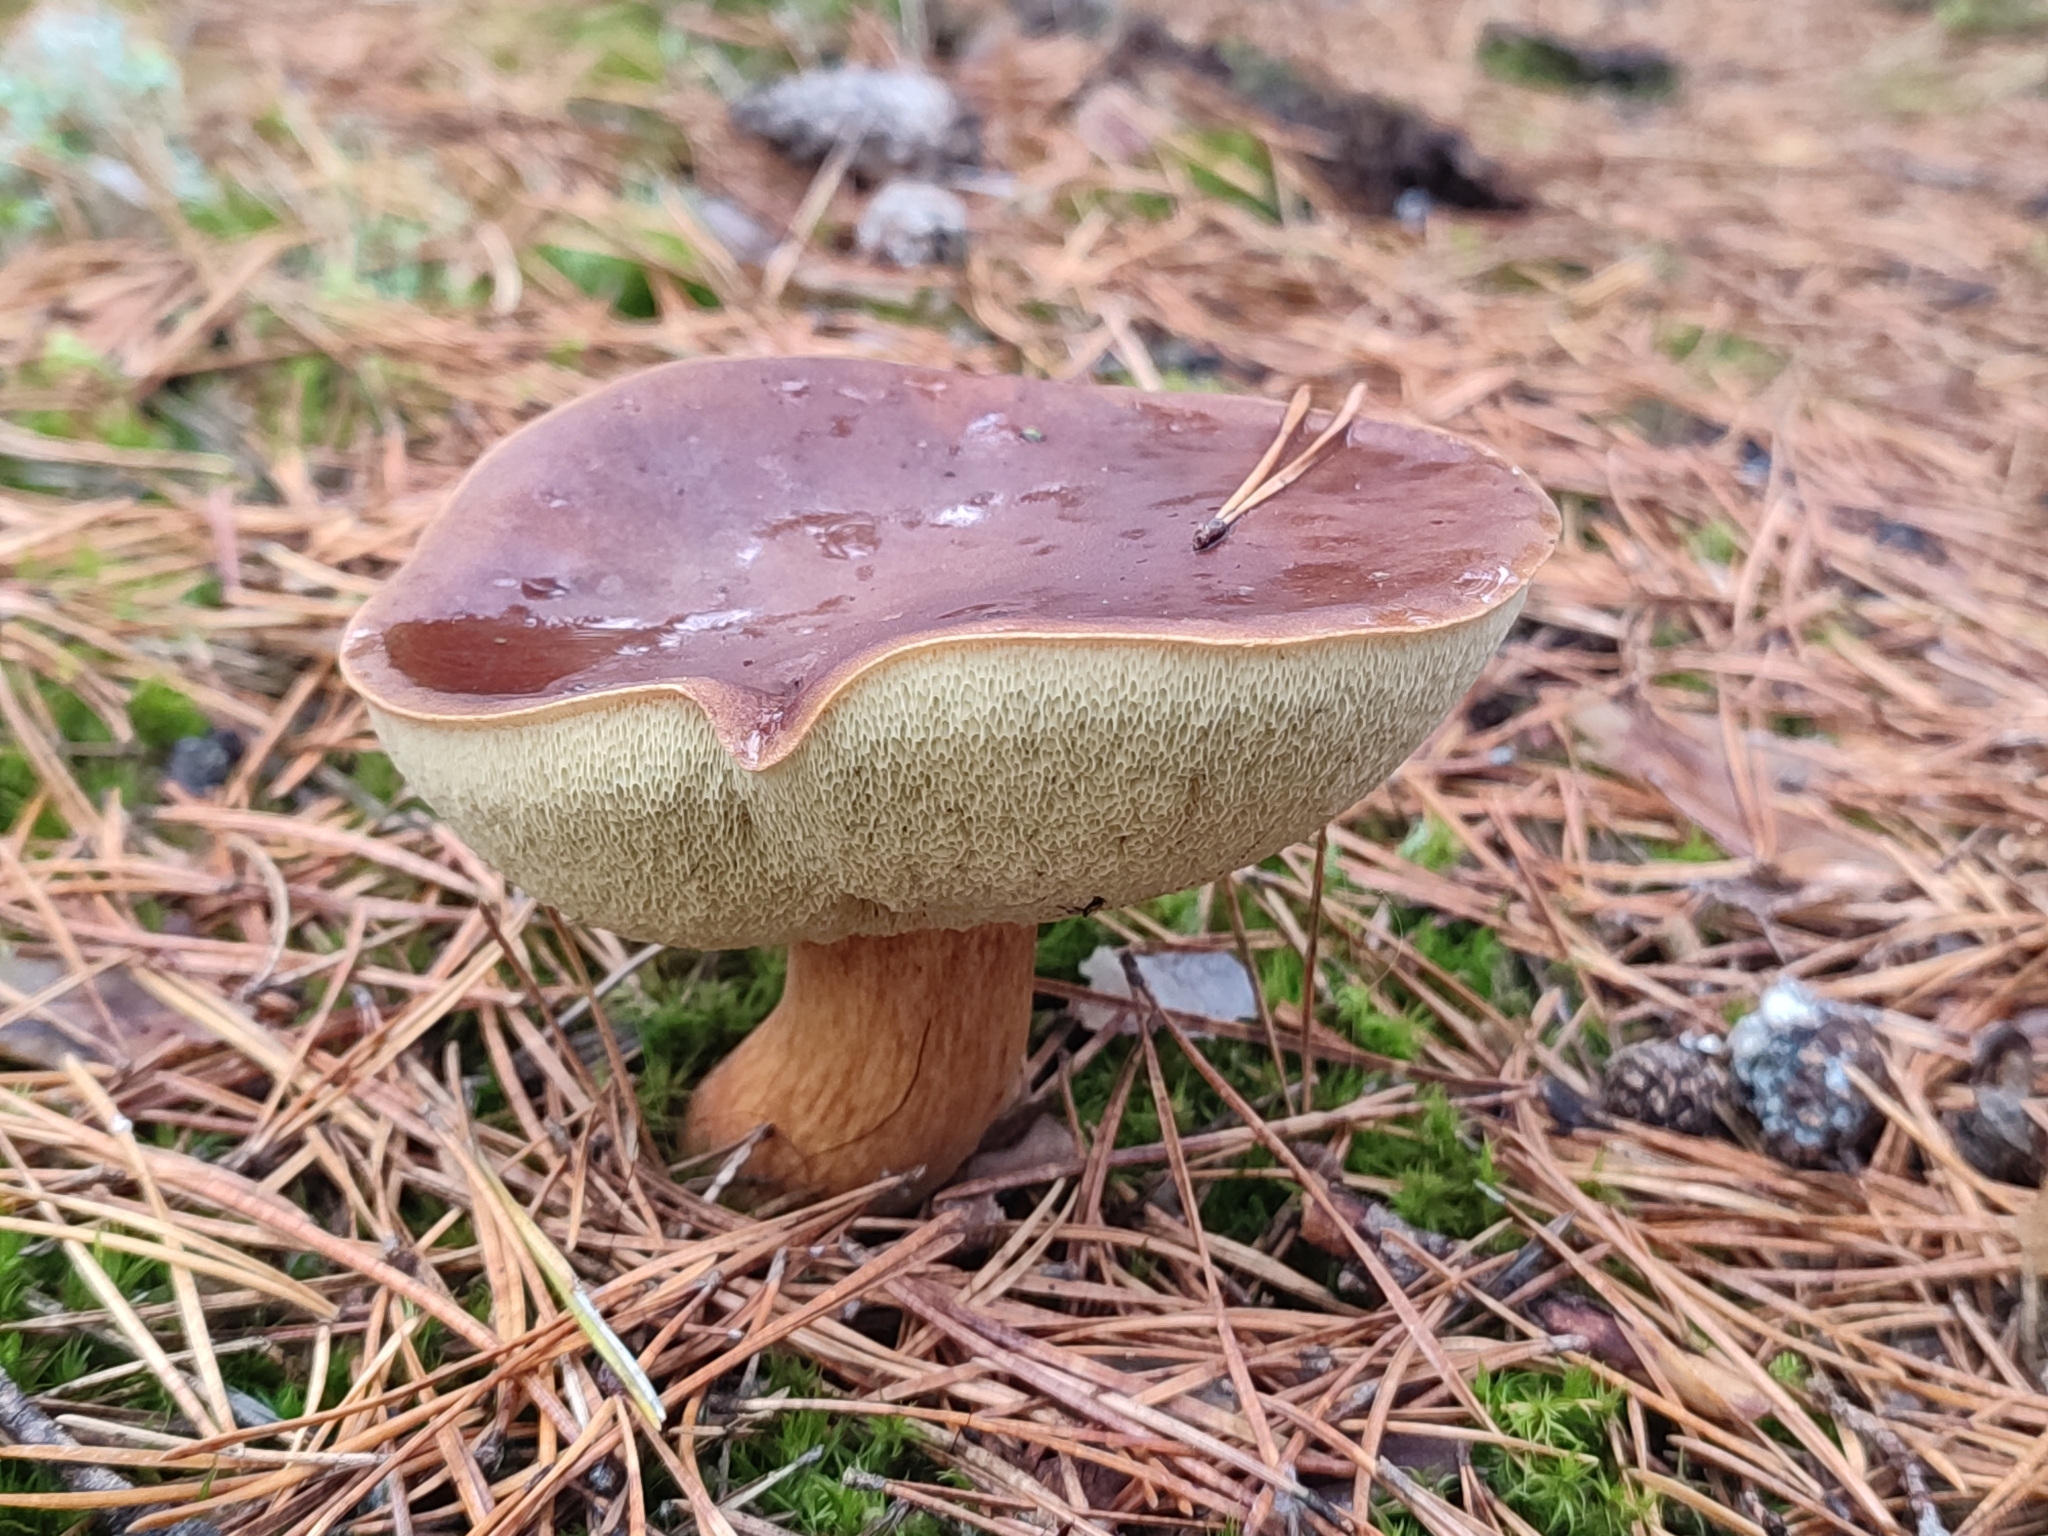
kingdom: Fungi
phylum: Basidiomycota
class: Agaricomycetes
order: Boletales
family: Boletaceae
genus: Imleria
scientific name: Imleria badia
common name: Bay bolete
